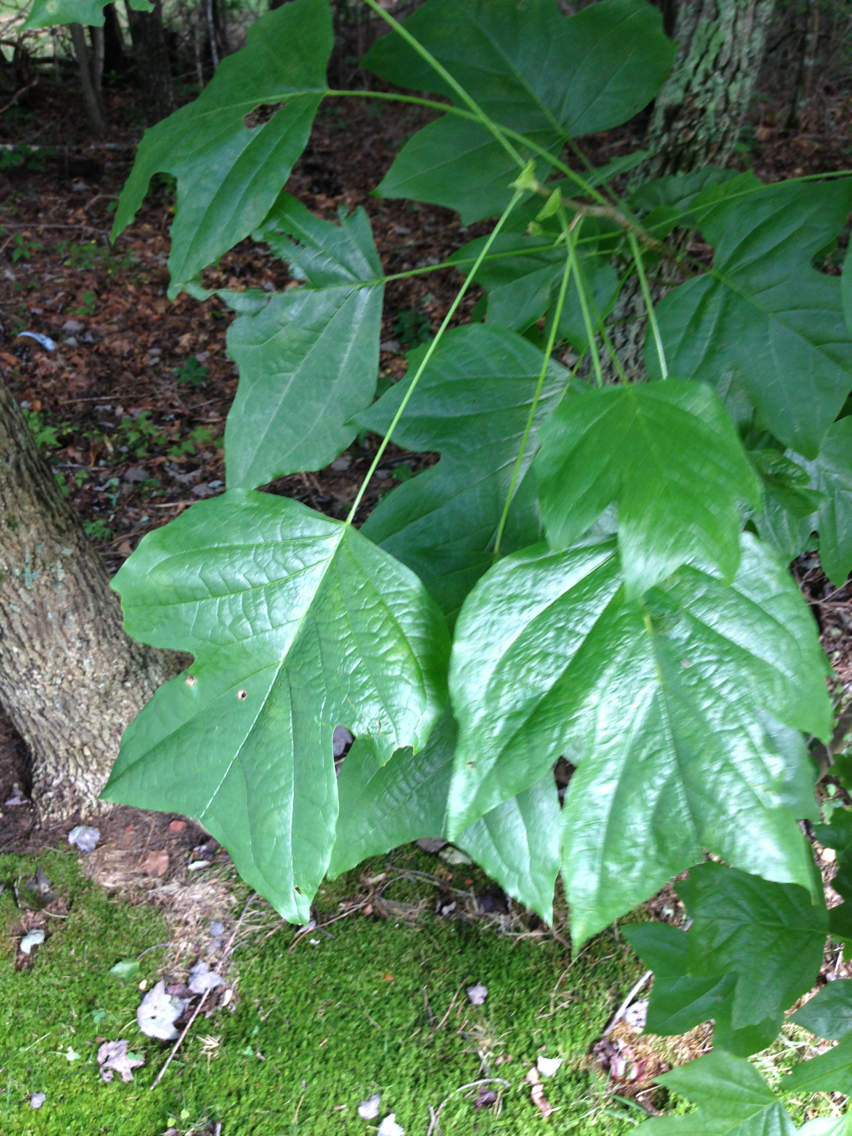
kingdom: Plantae
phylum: Tracheophyta
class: Magnoliopsida
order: Magnoliales
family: Magnoliaceae
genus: Liriodendron
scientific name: Liriodendron tulipifera
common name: Tulip tree
